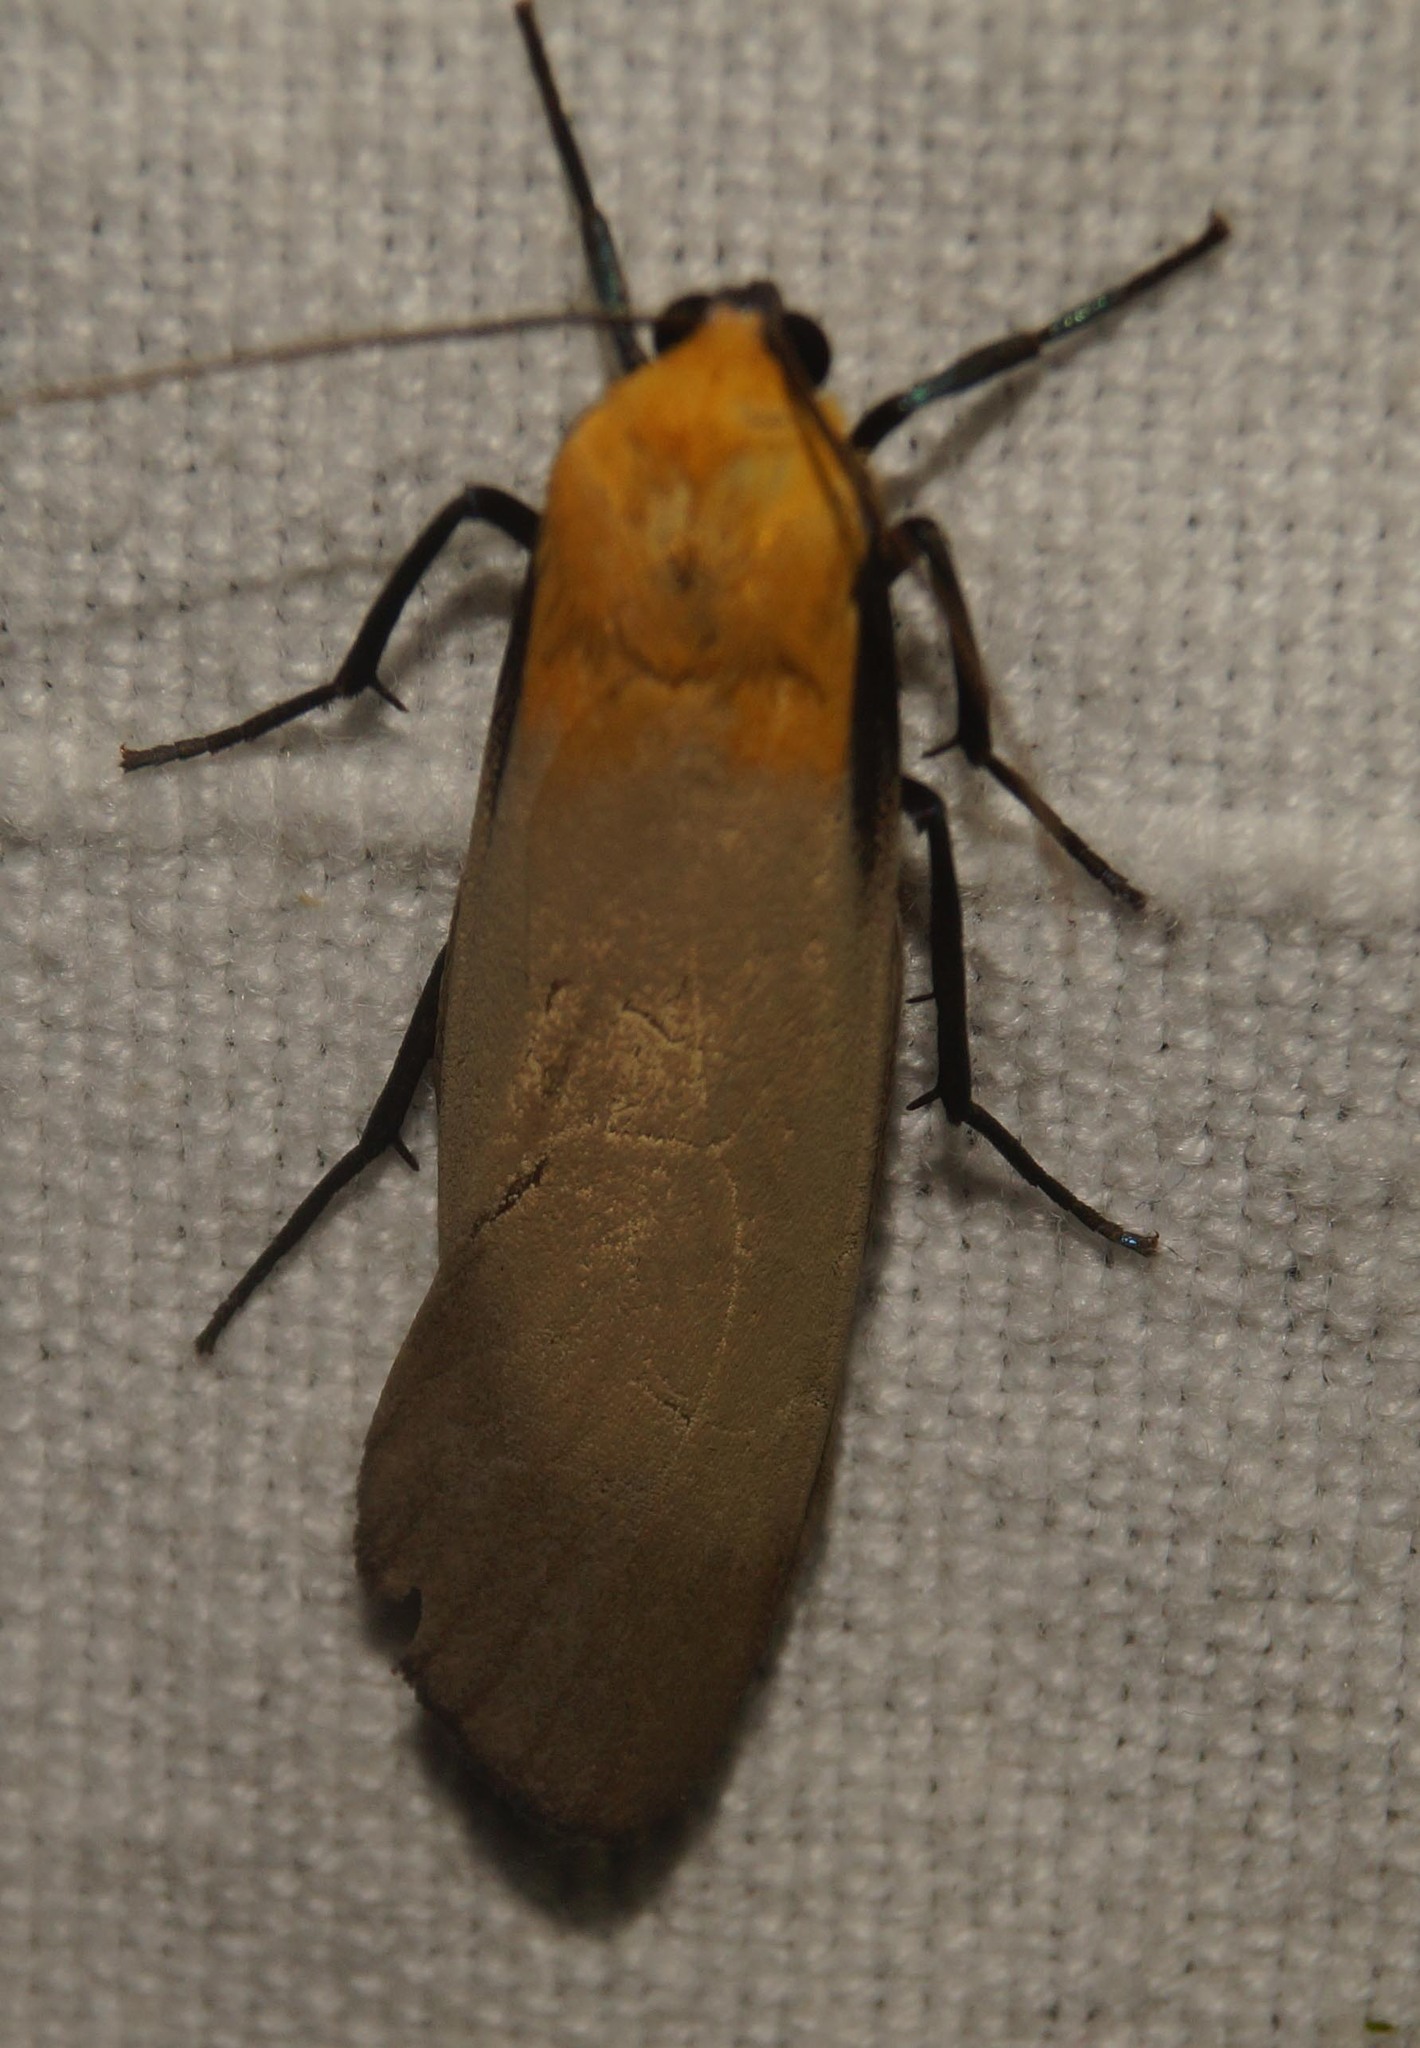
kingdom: Animalia
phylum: Arthropoda
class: Insecta
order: Lepidoptera
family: Erebidae
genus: Lithosia
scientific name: Lithosia quadra
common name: Four-spotted footman
